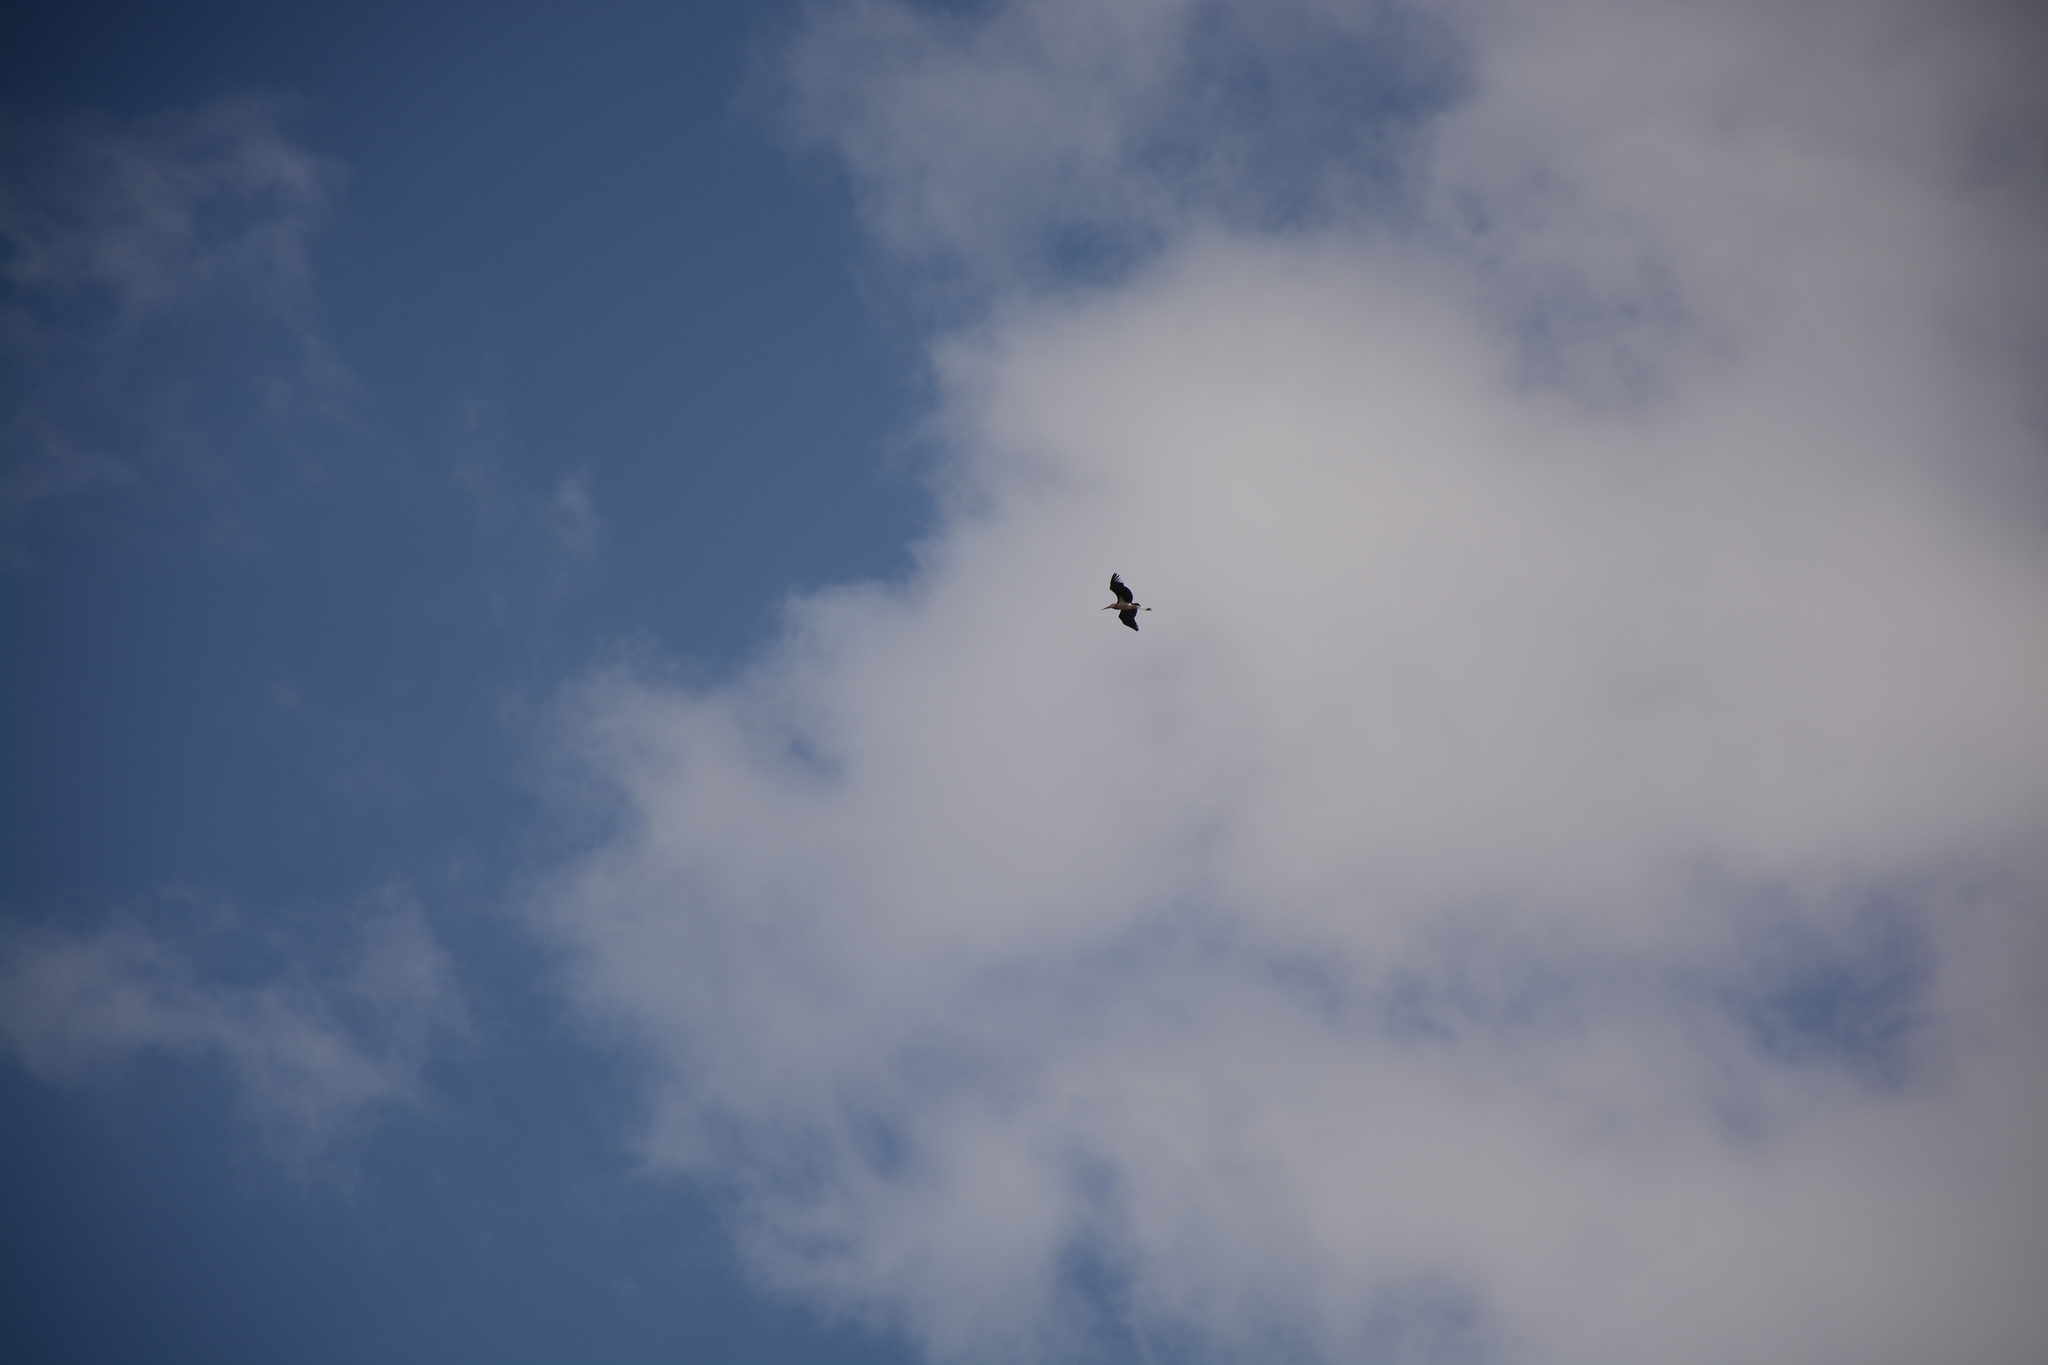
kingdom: Animalia
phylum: Chordata
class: Aves
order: Ciconiiformes
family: Ciconiidae
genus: Leptoptilos
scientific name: Leptoptilos crumenifer
